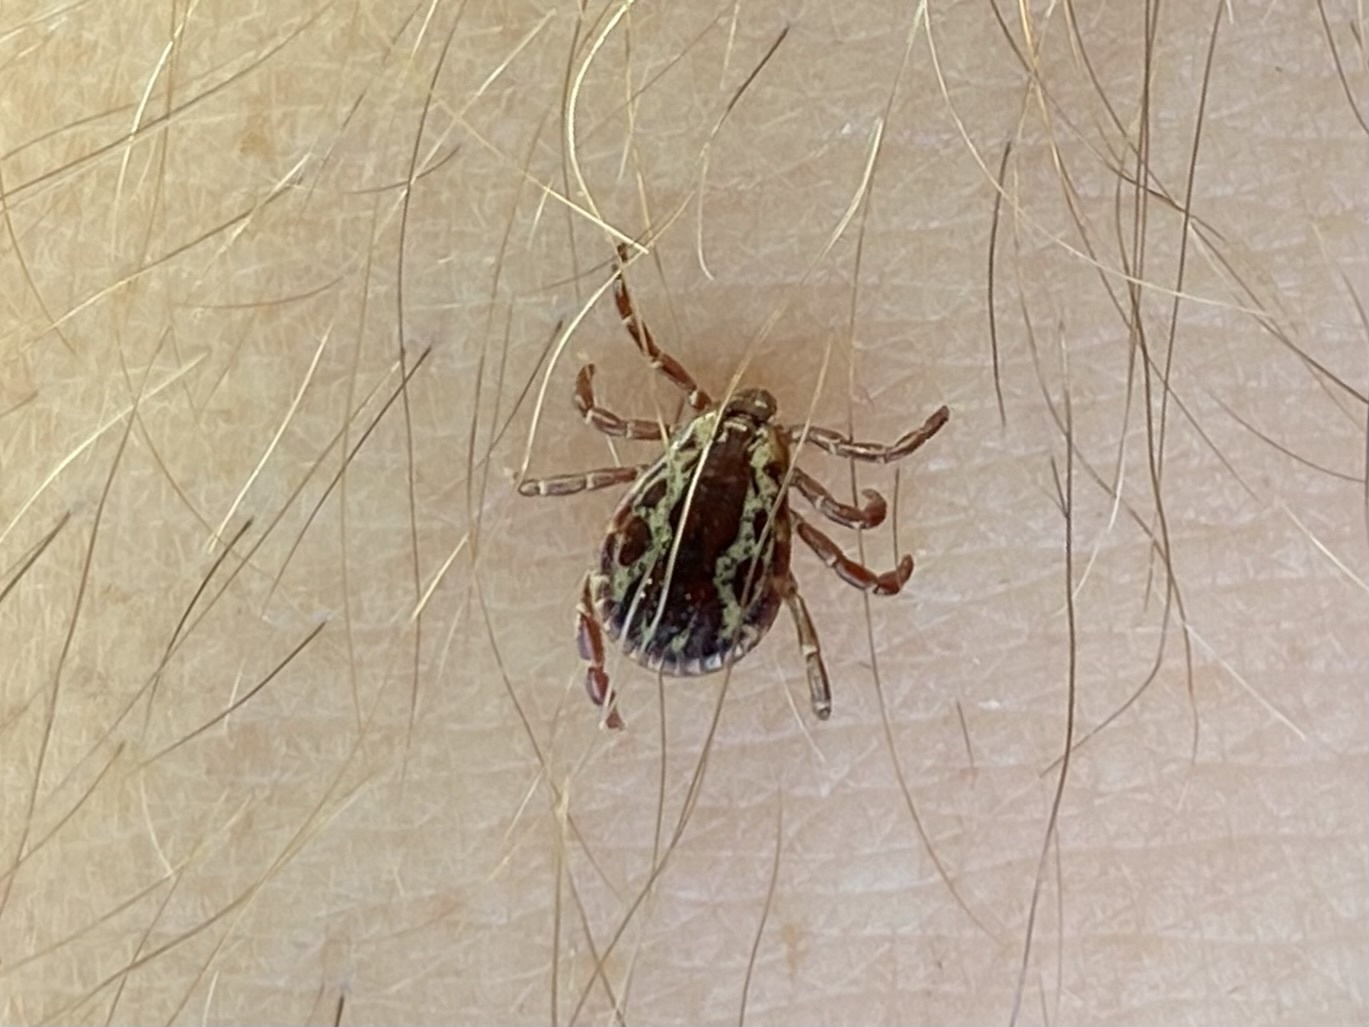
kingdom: Animalia
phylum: Arthropoda
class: Arachnida
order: Ixodida
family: Ixodidae
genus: Dermacentor
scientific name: Dermacentor variabilis
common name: American dog tick
